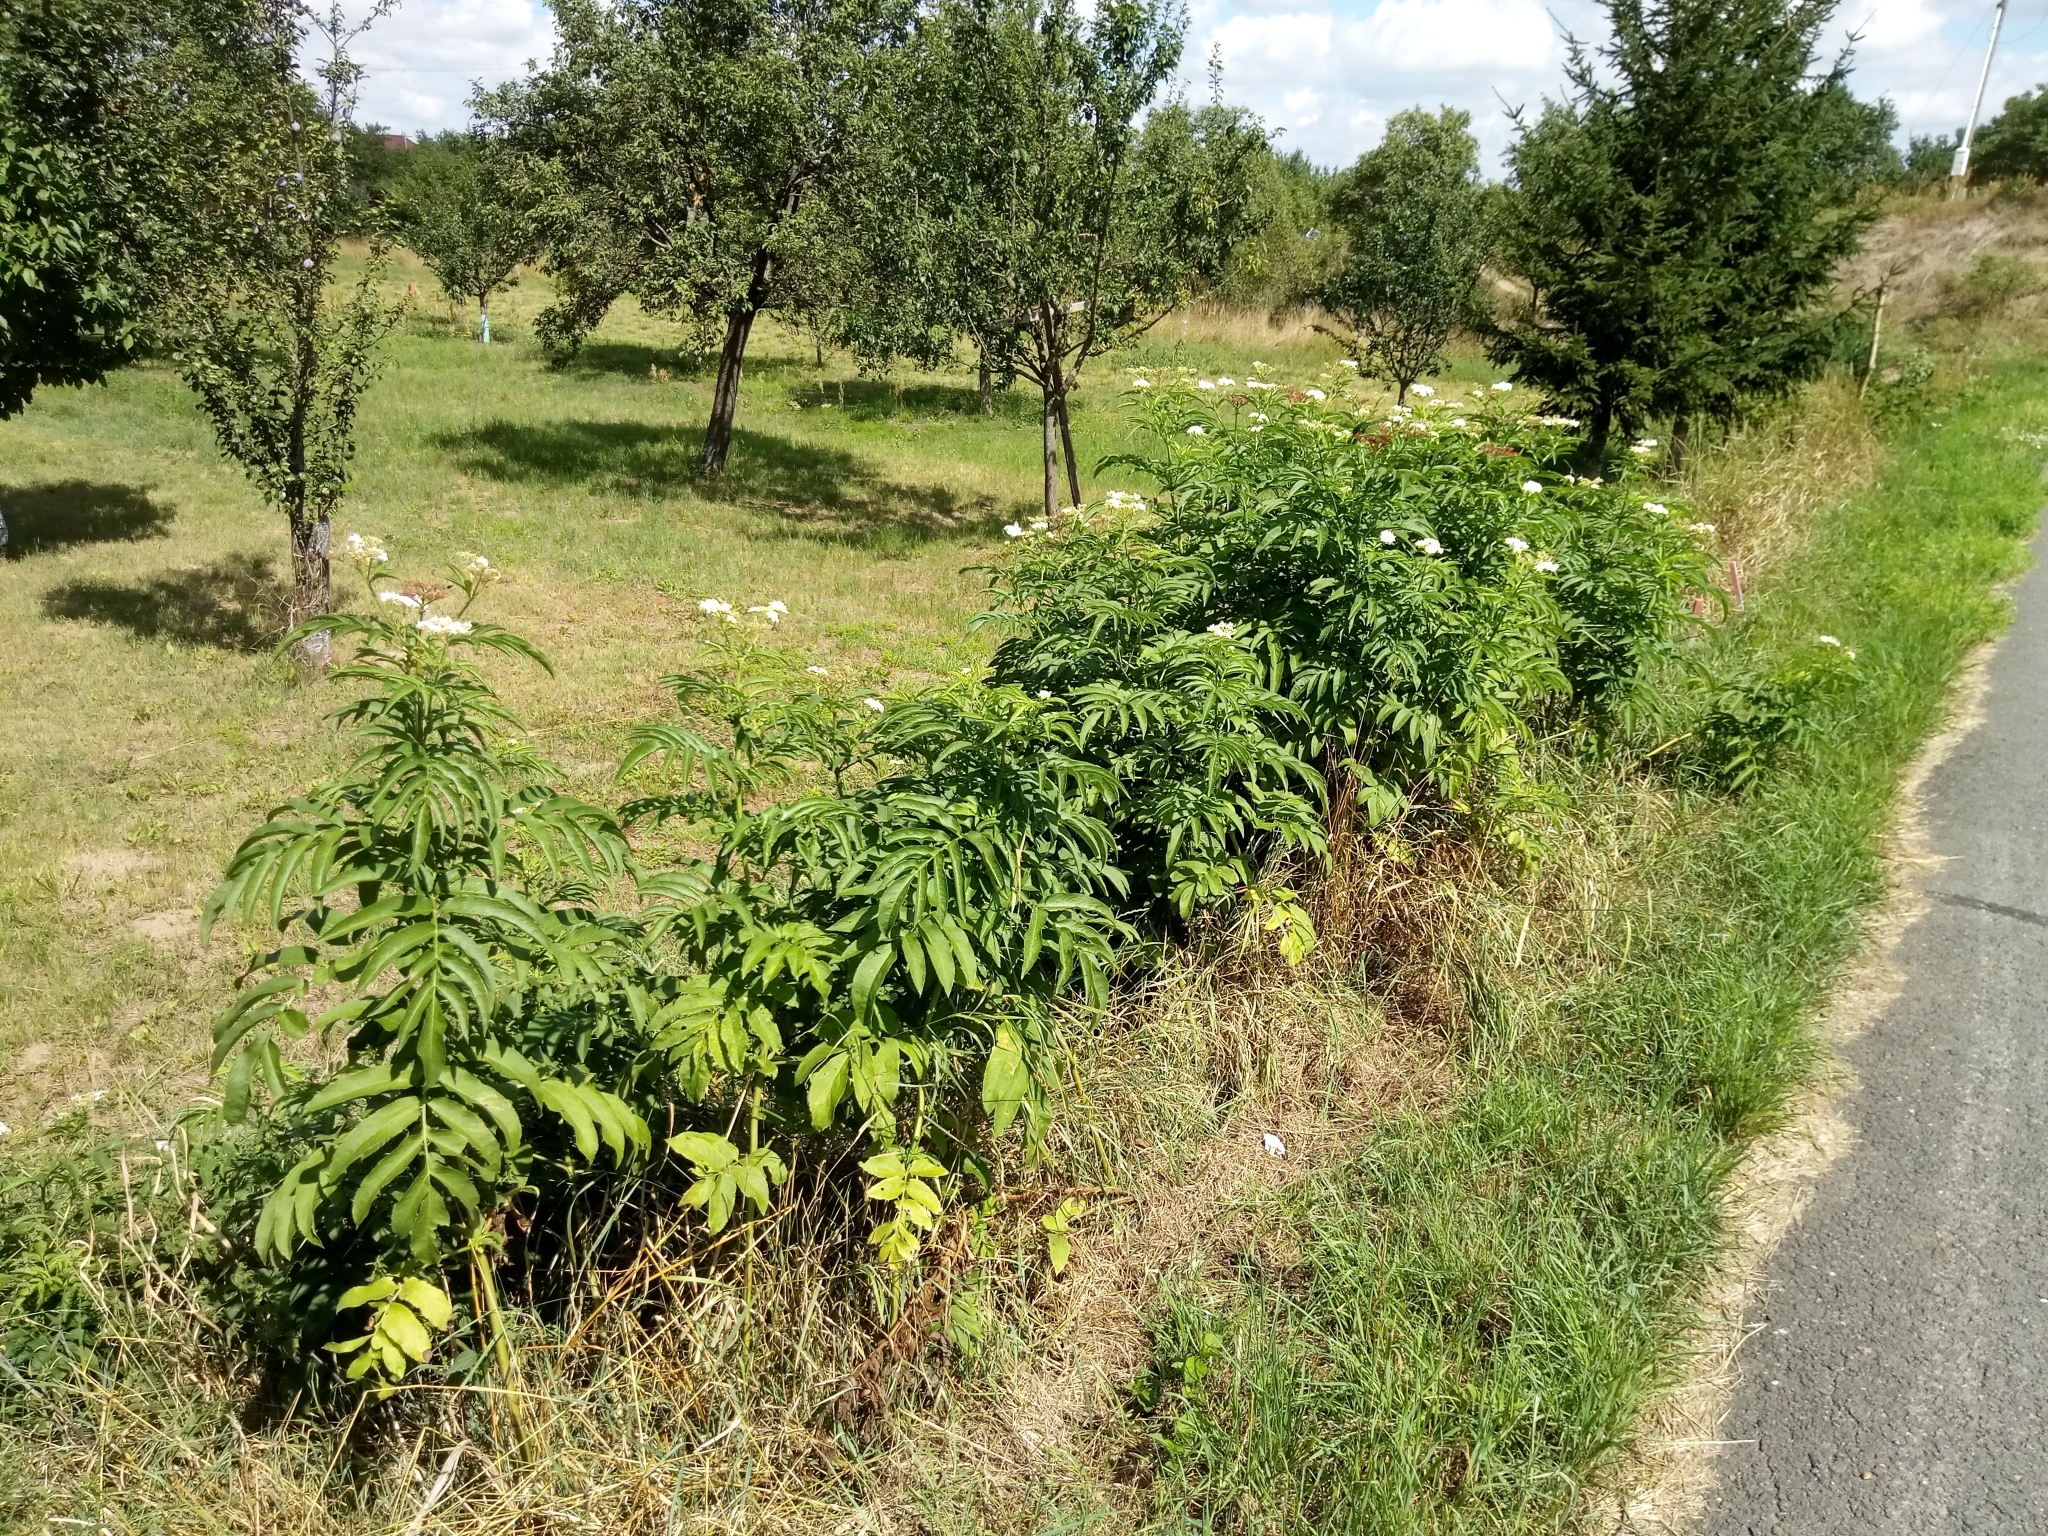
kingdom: Plantae
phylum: Tracheophyta
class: Magnoliopsida
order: Dipsacales
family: Viburnaceae
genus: Sambucus
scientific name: Sambucus ebulus
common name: Dwarf elder
